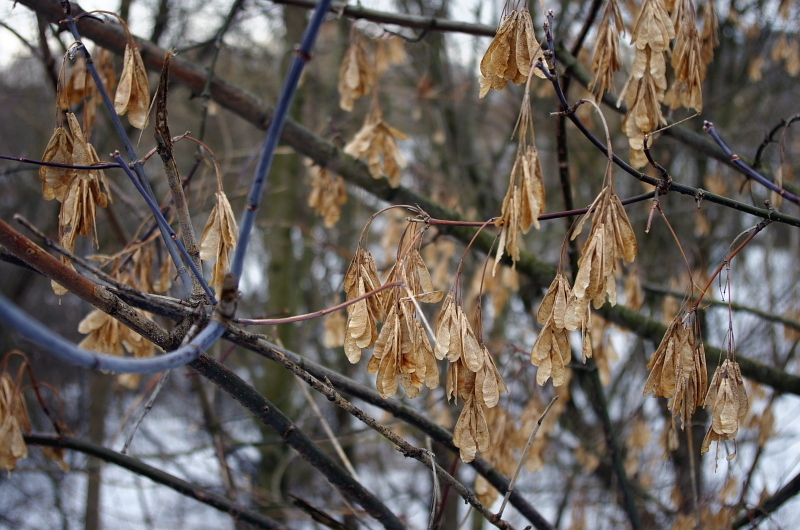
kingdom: Plantae
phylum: Tracheophyta
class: Magnoliopsida
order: Sapindales
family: Sapindaceae
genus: Acer
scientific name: Acer negundo
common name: Ashleaf maple
